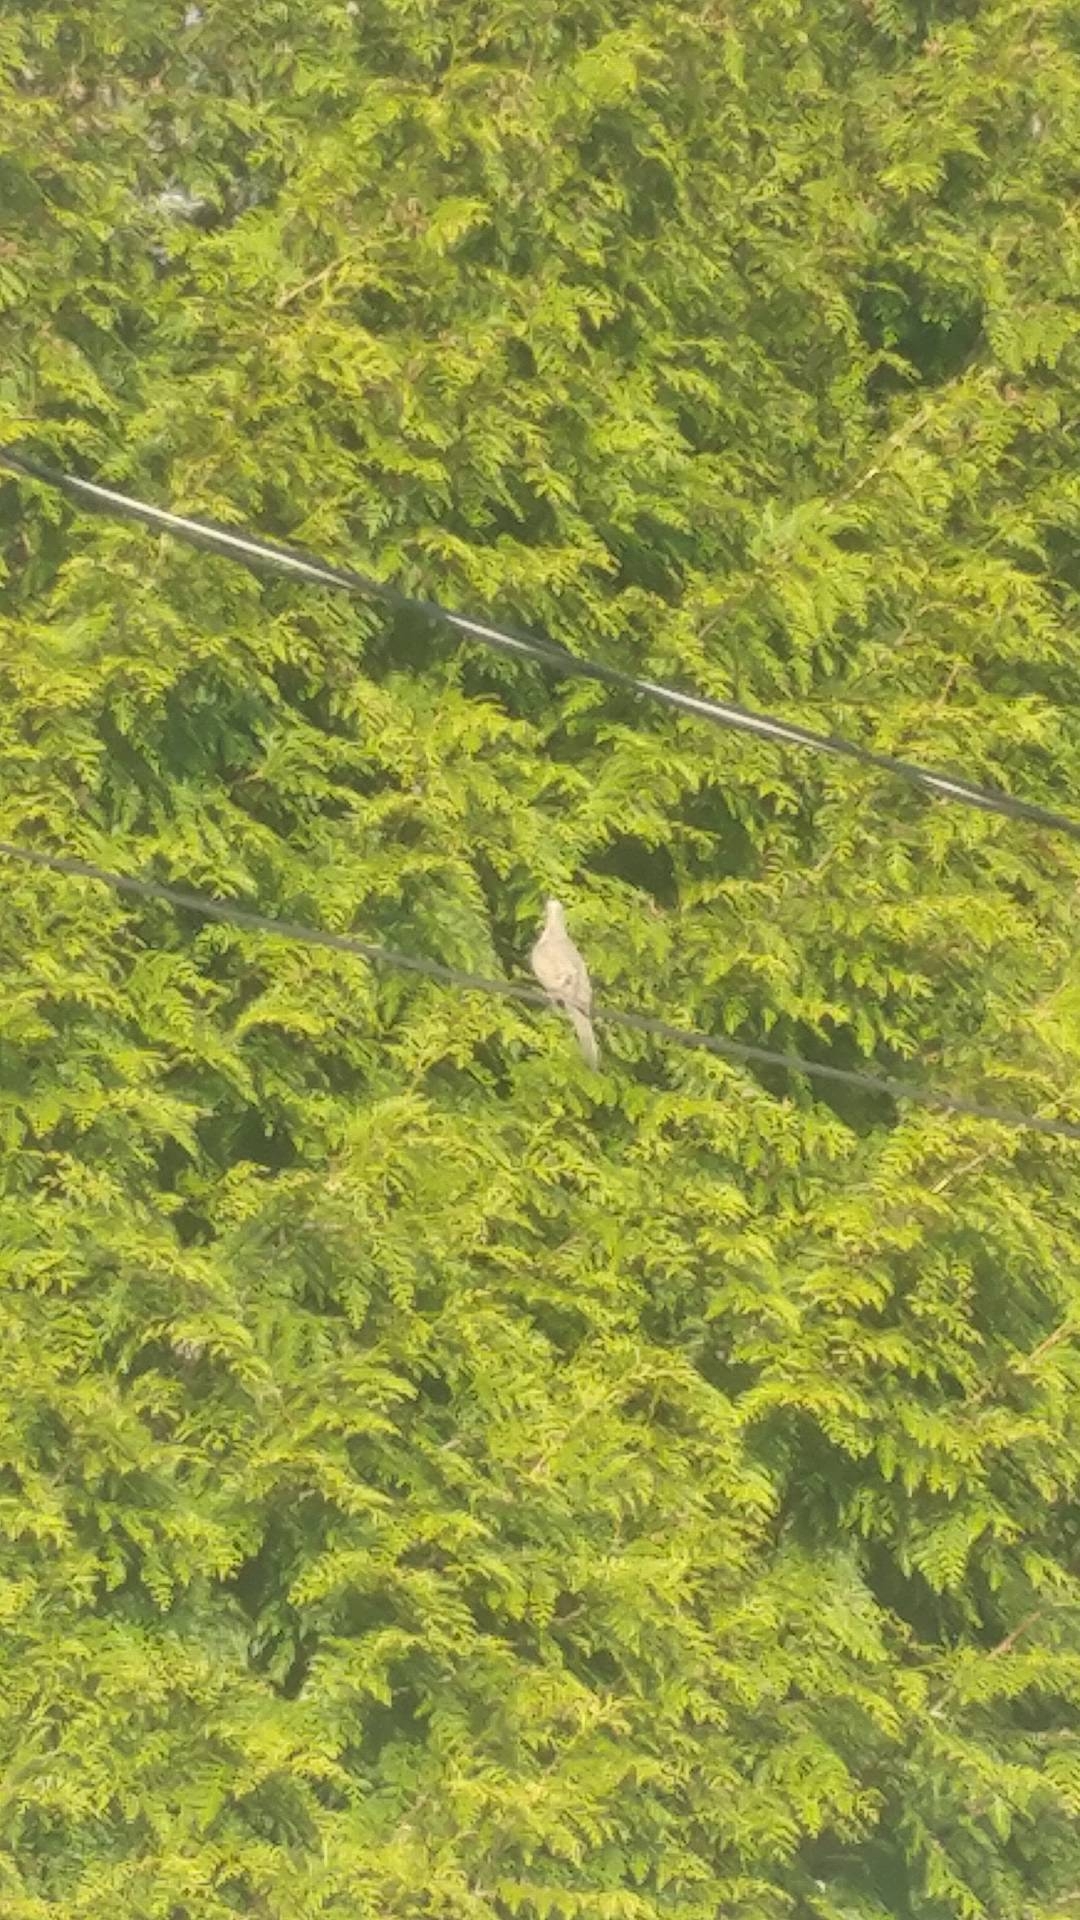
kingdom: Animalia
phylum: Chordata
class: Aves
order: Columbiformes
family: Columbidae
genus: Zenaida
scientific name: Zenaida macroura
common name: Mourning dove
